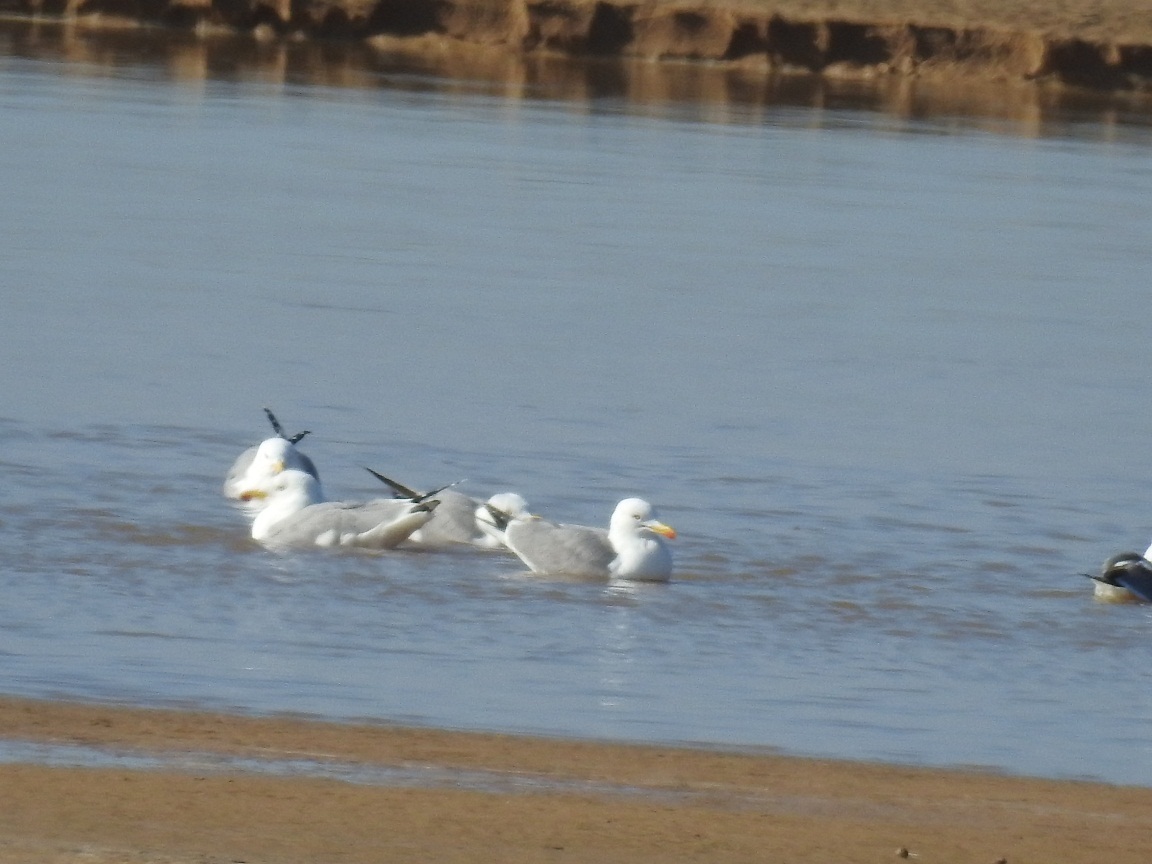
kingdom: Animalia
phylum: Chordata
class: Aves
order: Charadriiformes
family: Laridae
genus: Larus
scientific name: Larus michahellis
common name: Yellow-legged gull
